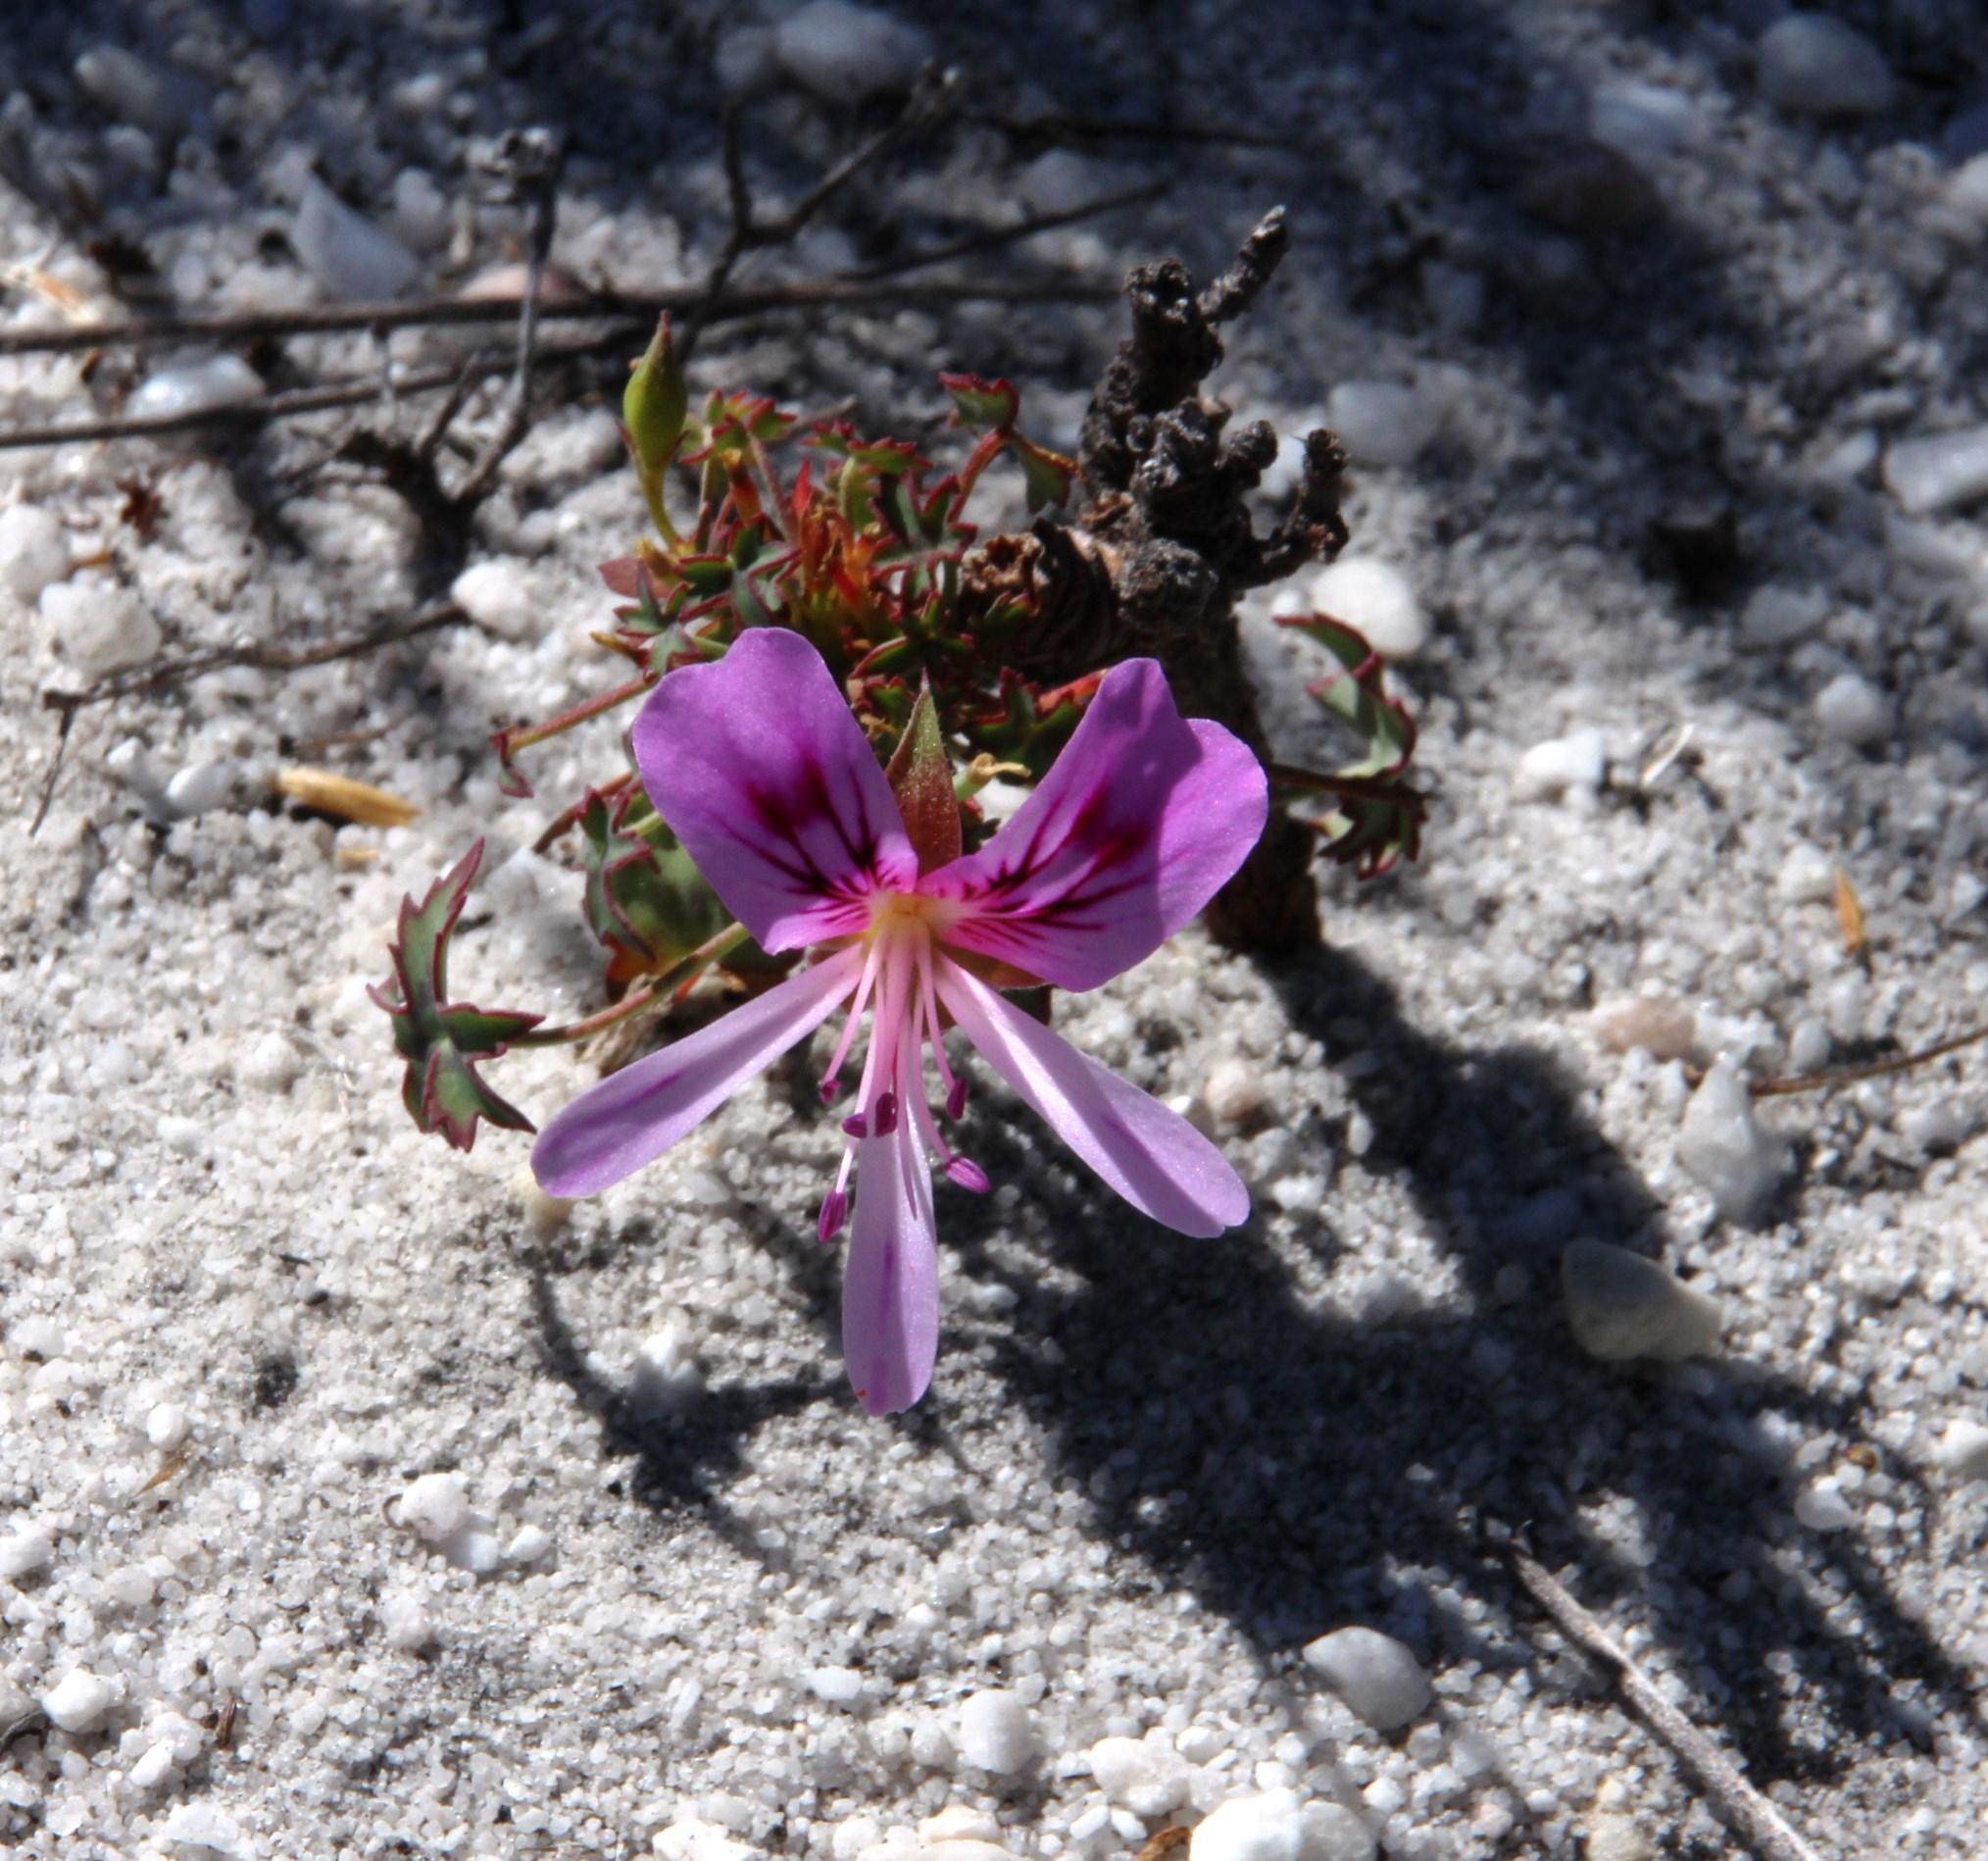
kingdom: Plantae
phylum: Tracheophyta
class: Magnoliopsida
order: Geraniales
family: Geraniaceae
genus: Pelargonium
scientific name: Pelargonium grandiflorum
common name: Large-flower pelargonium
